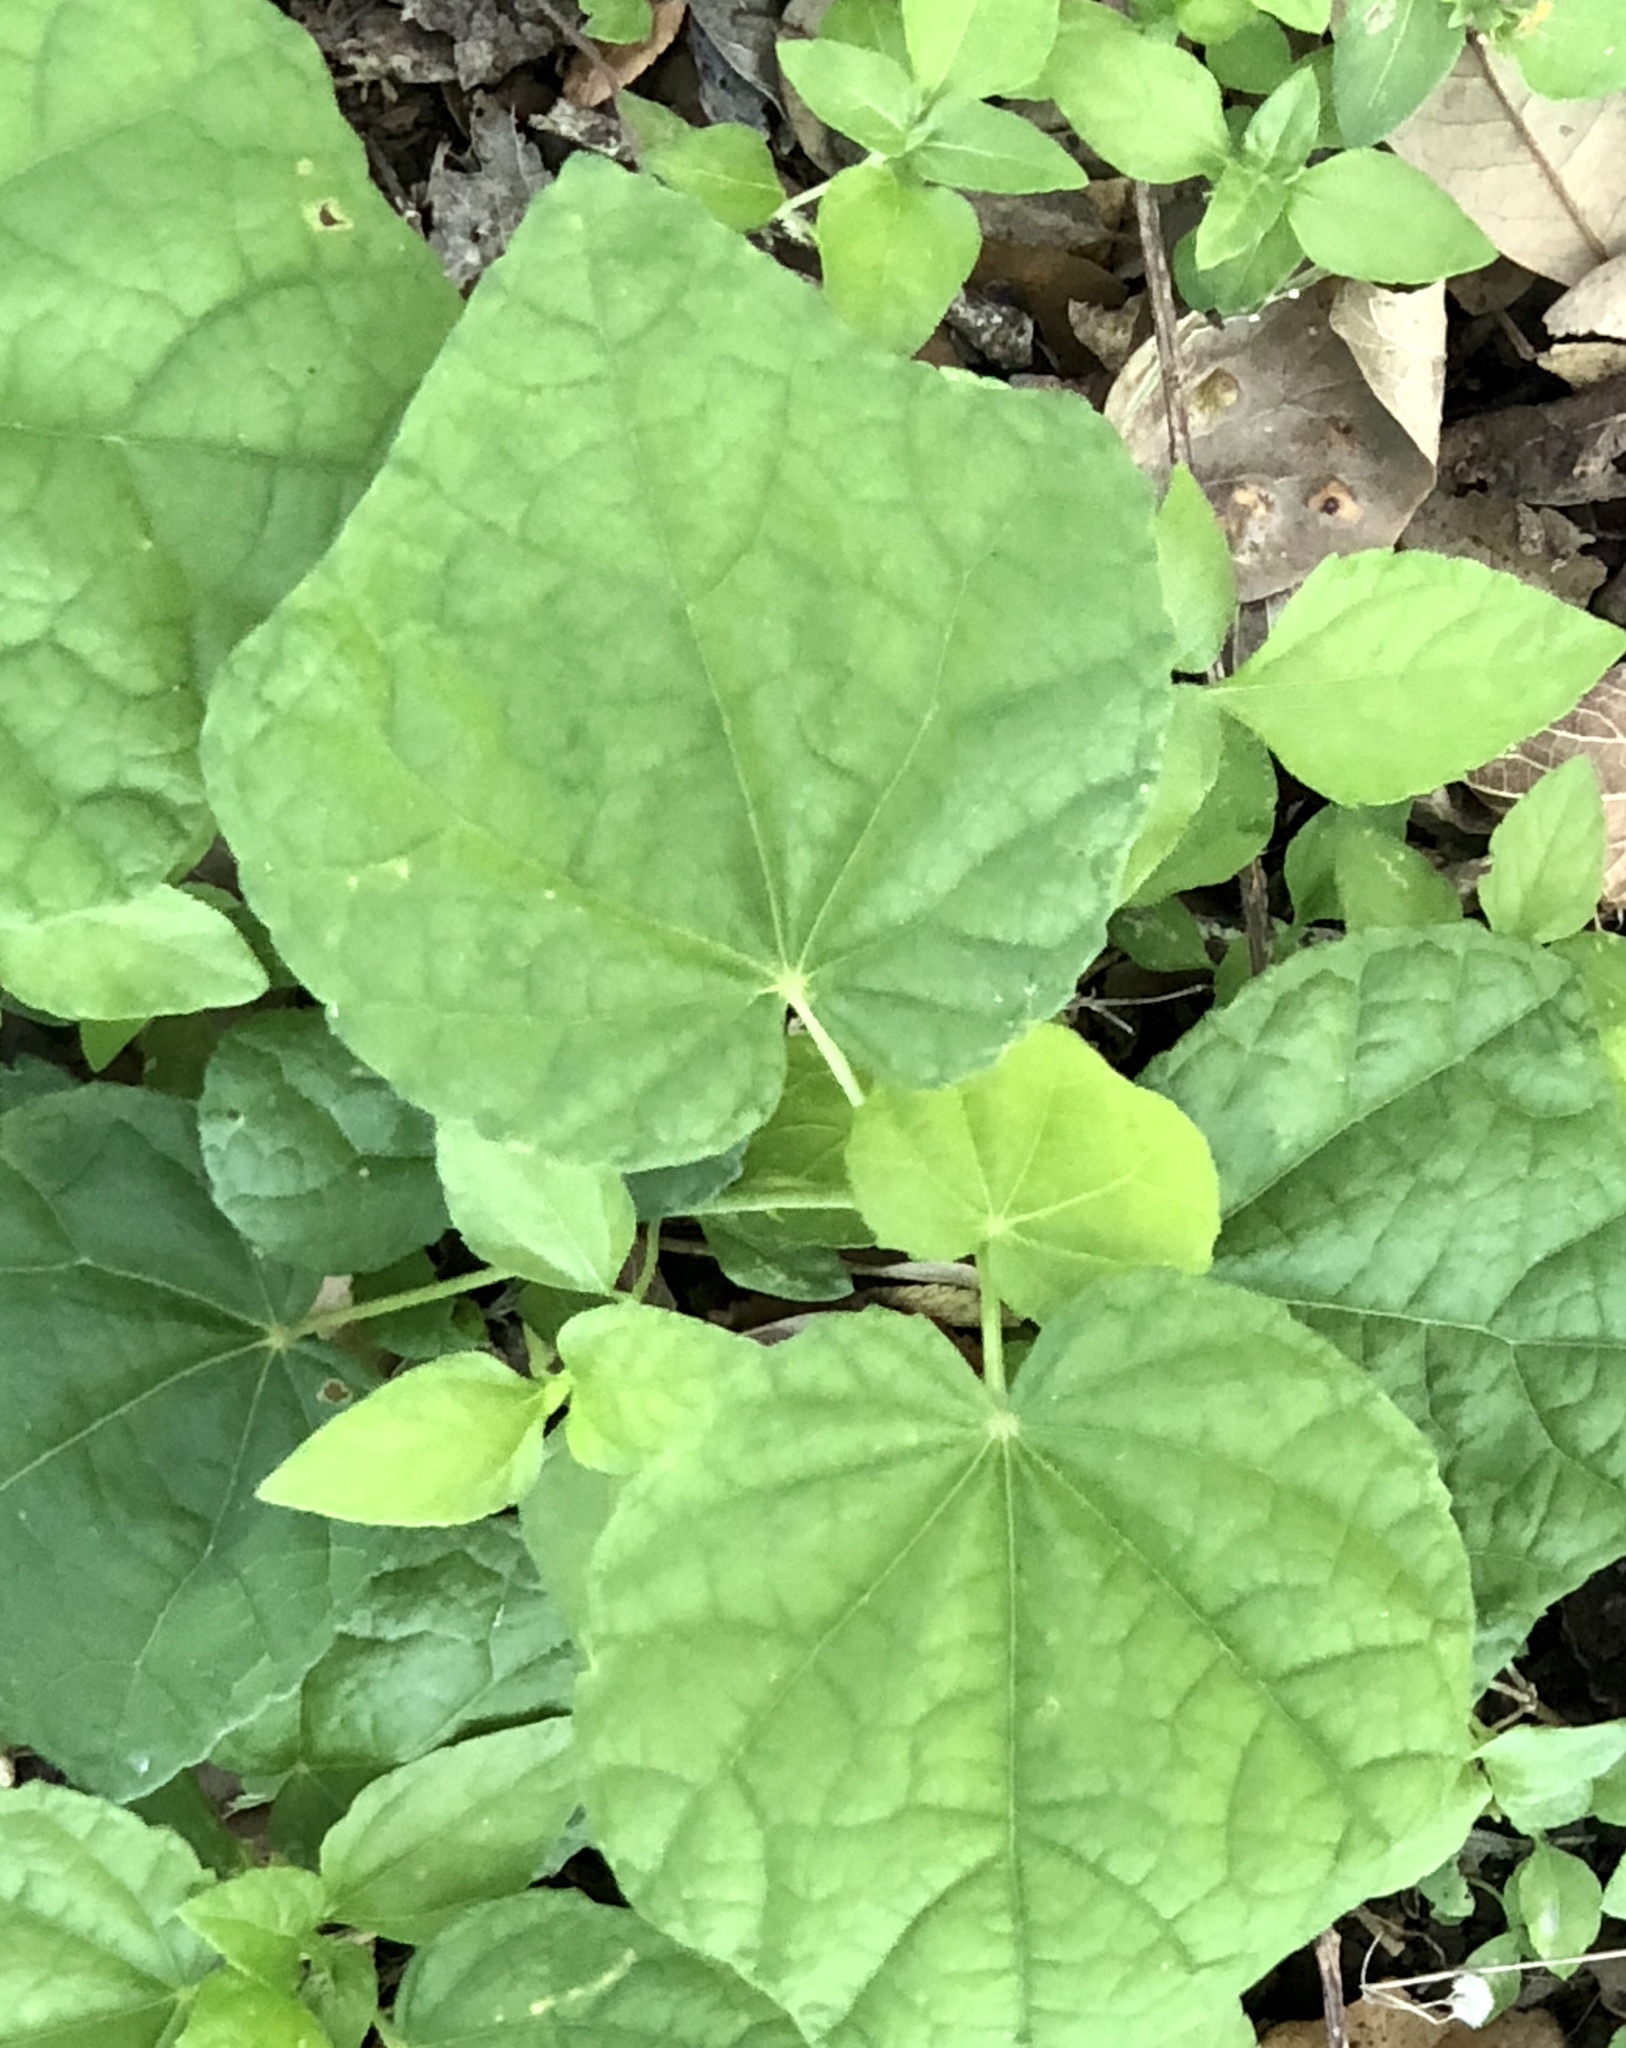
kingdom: Plantae
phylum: Tracheophyta
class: Magnoliopsida
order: Malvales
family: Malvaceae
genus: Malvaviscus
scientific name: Malvaviscus arboreus
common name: Wax mallow
